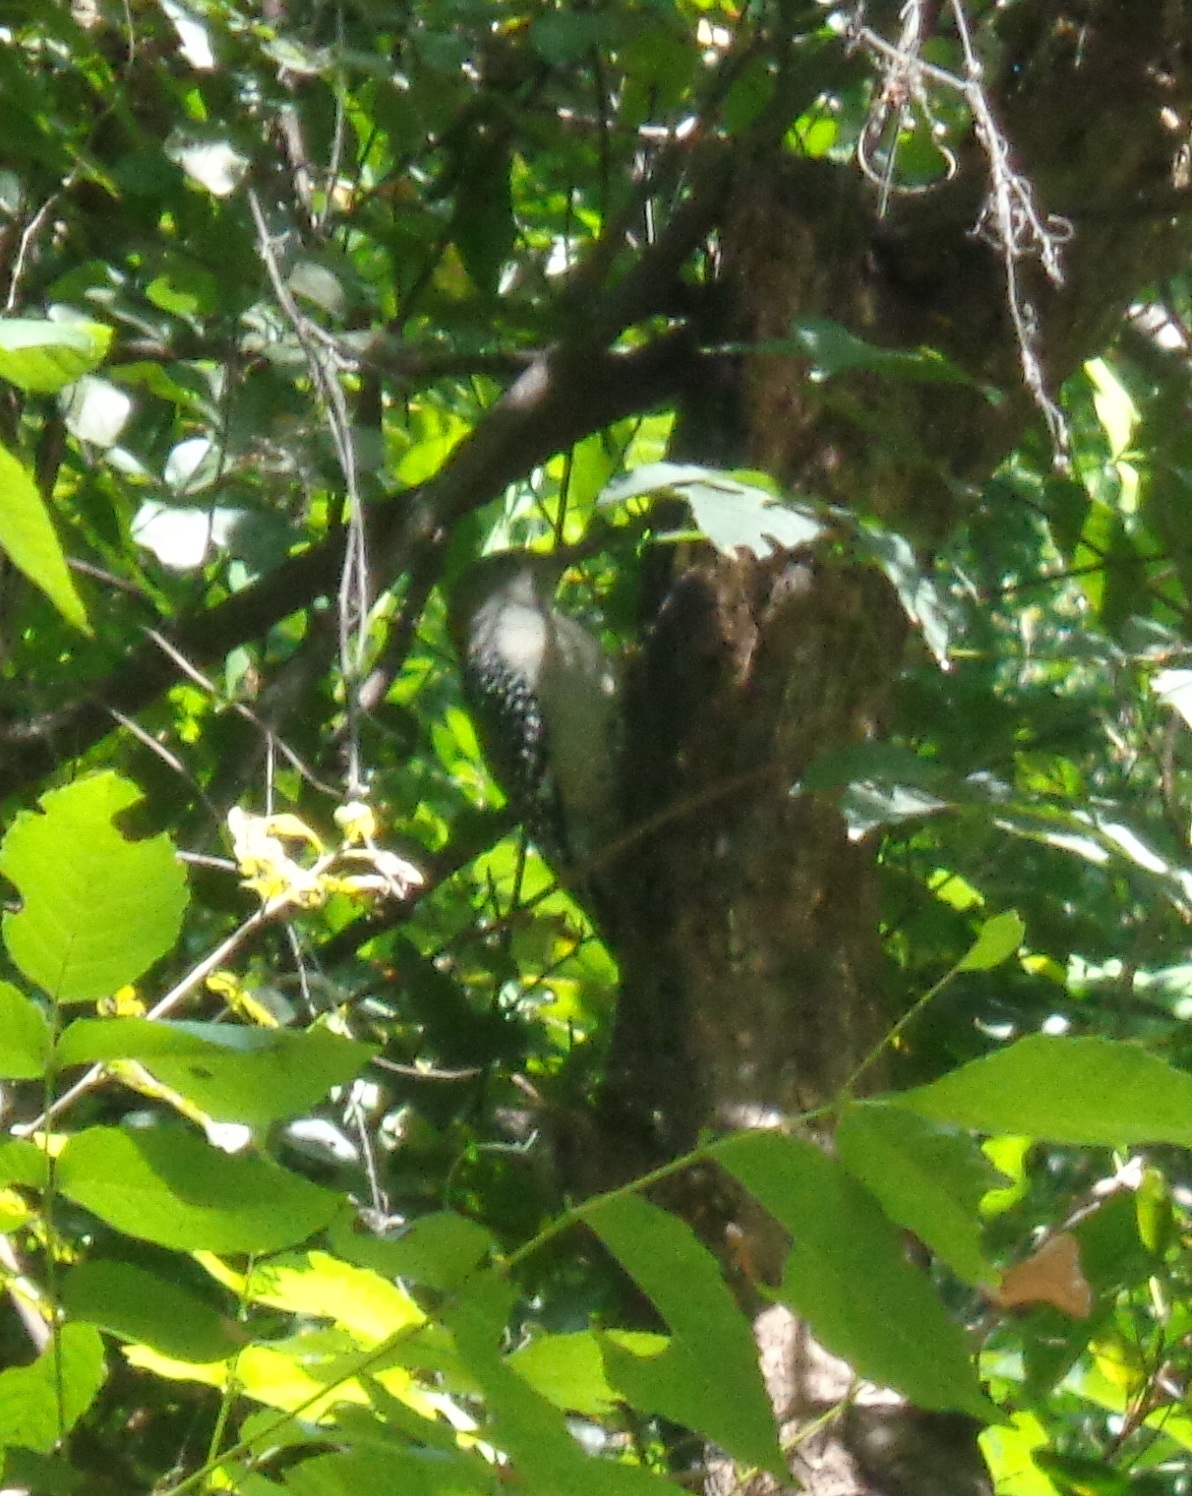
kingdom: Animalia
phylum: Chordata
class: Aves
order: Piciformes
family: Picidae
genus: Melanerpes
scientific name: Melanerpes aurifrons
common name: Golden-fronted woodpecker
